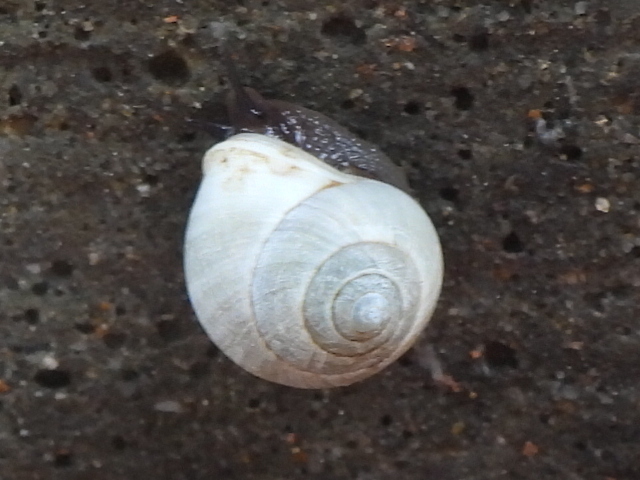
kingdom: Animalia
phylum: Mollusca
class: Gastropoda
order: Cycloneritida
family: Helicinidae
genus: Helicina
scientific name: Helicina orbiculata
